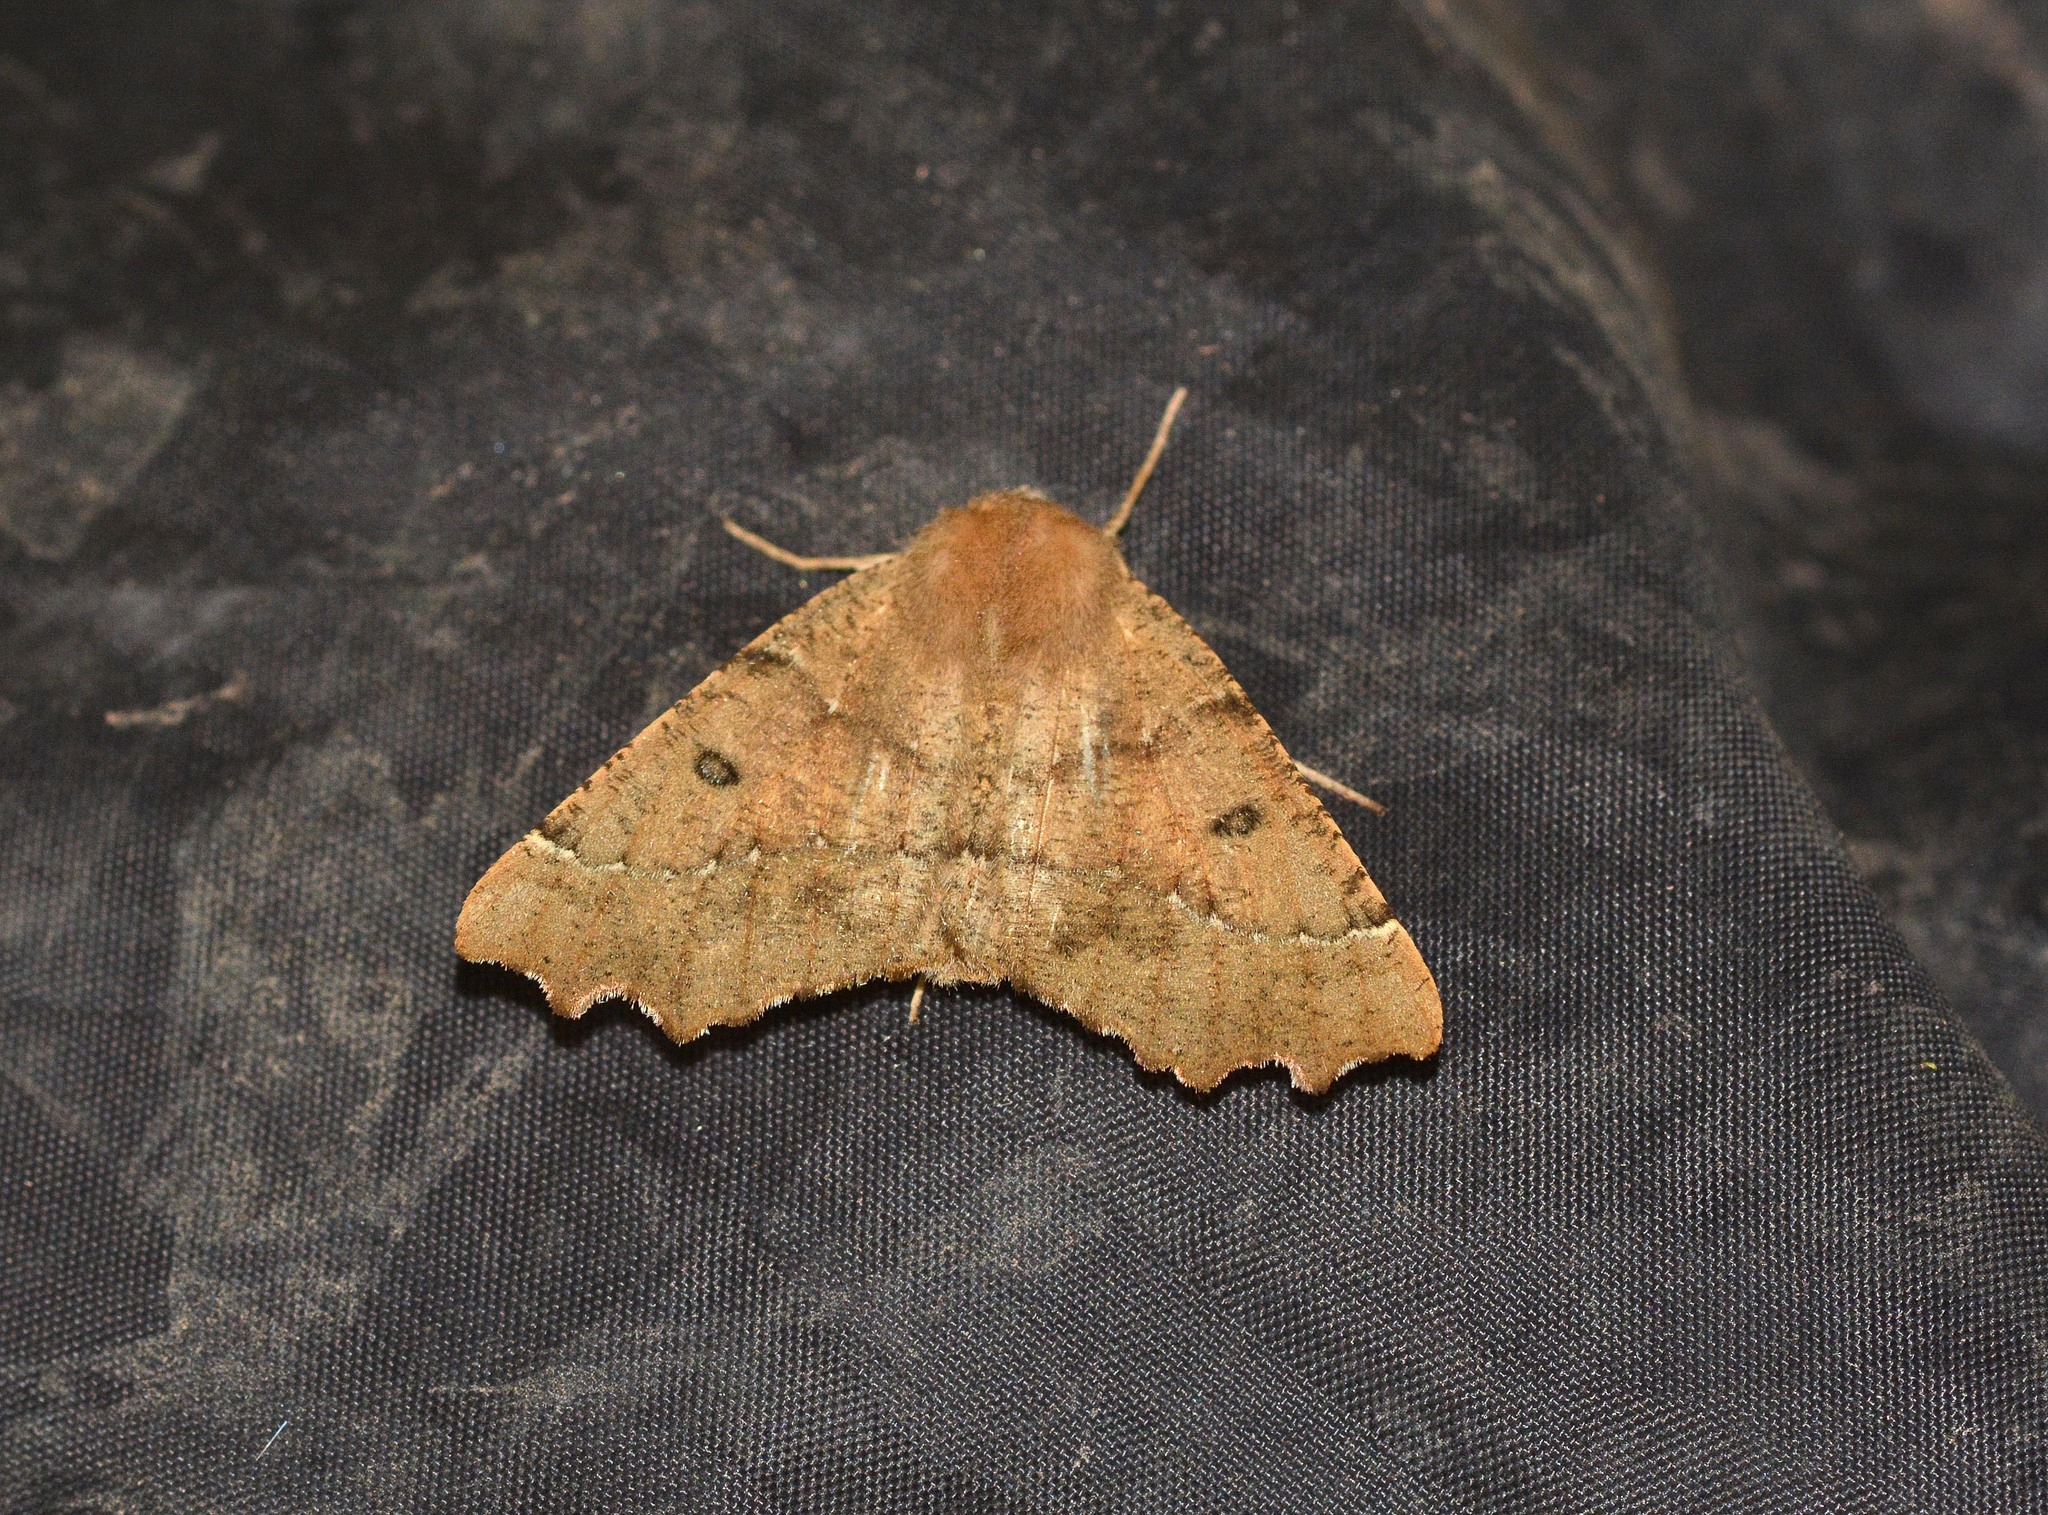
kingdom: Animalia
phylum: Arthropoda
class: Insecta
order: Lepidoptera
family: Geometridae
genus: Odontopera
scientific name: Odontopera bidentata
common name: Scalloped hazel
